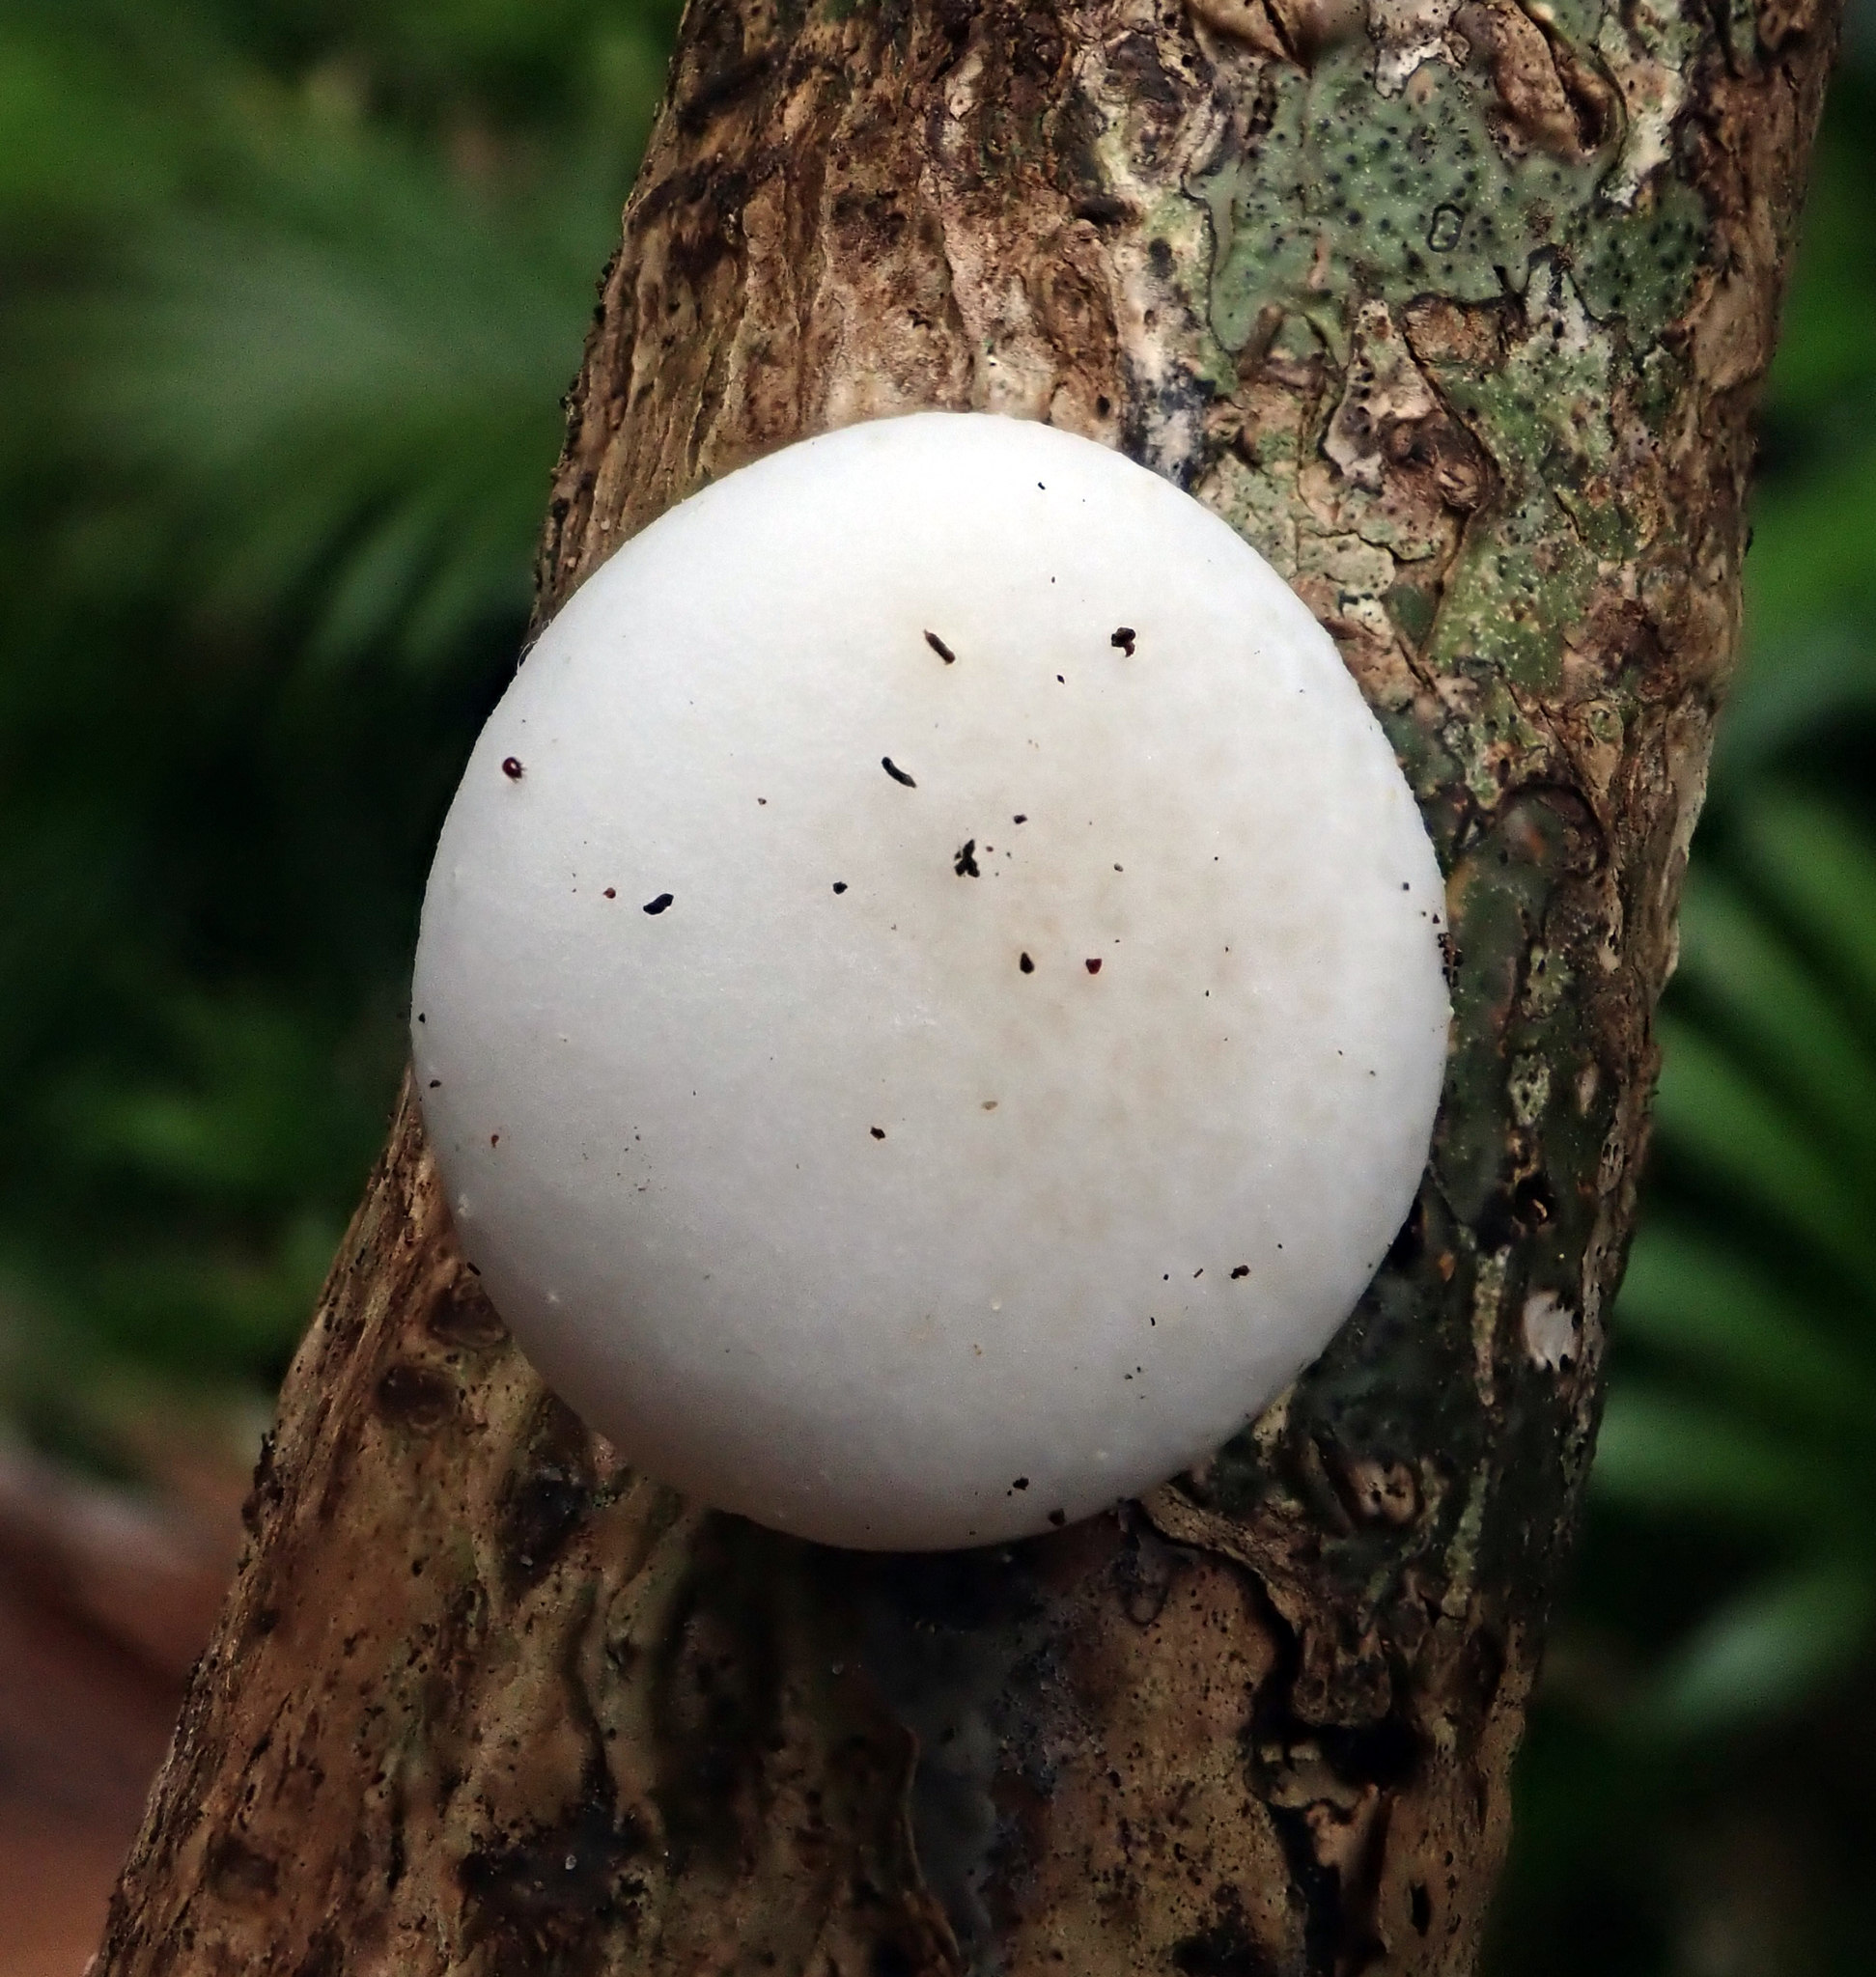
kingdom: Fungi
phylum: Basidiomycota
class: Agaricomycetes
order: Agaricales
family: Physalacriaceae
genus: Oudemansiella
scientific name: Oudemansiella australis
